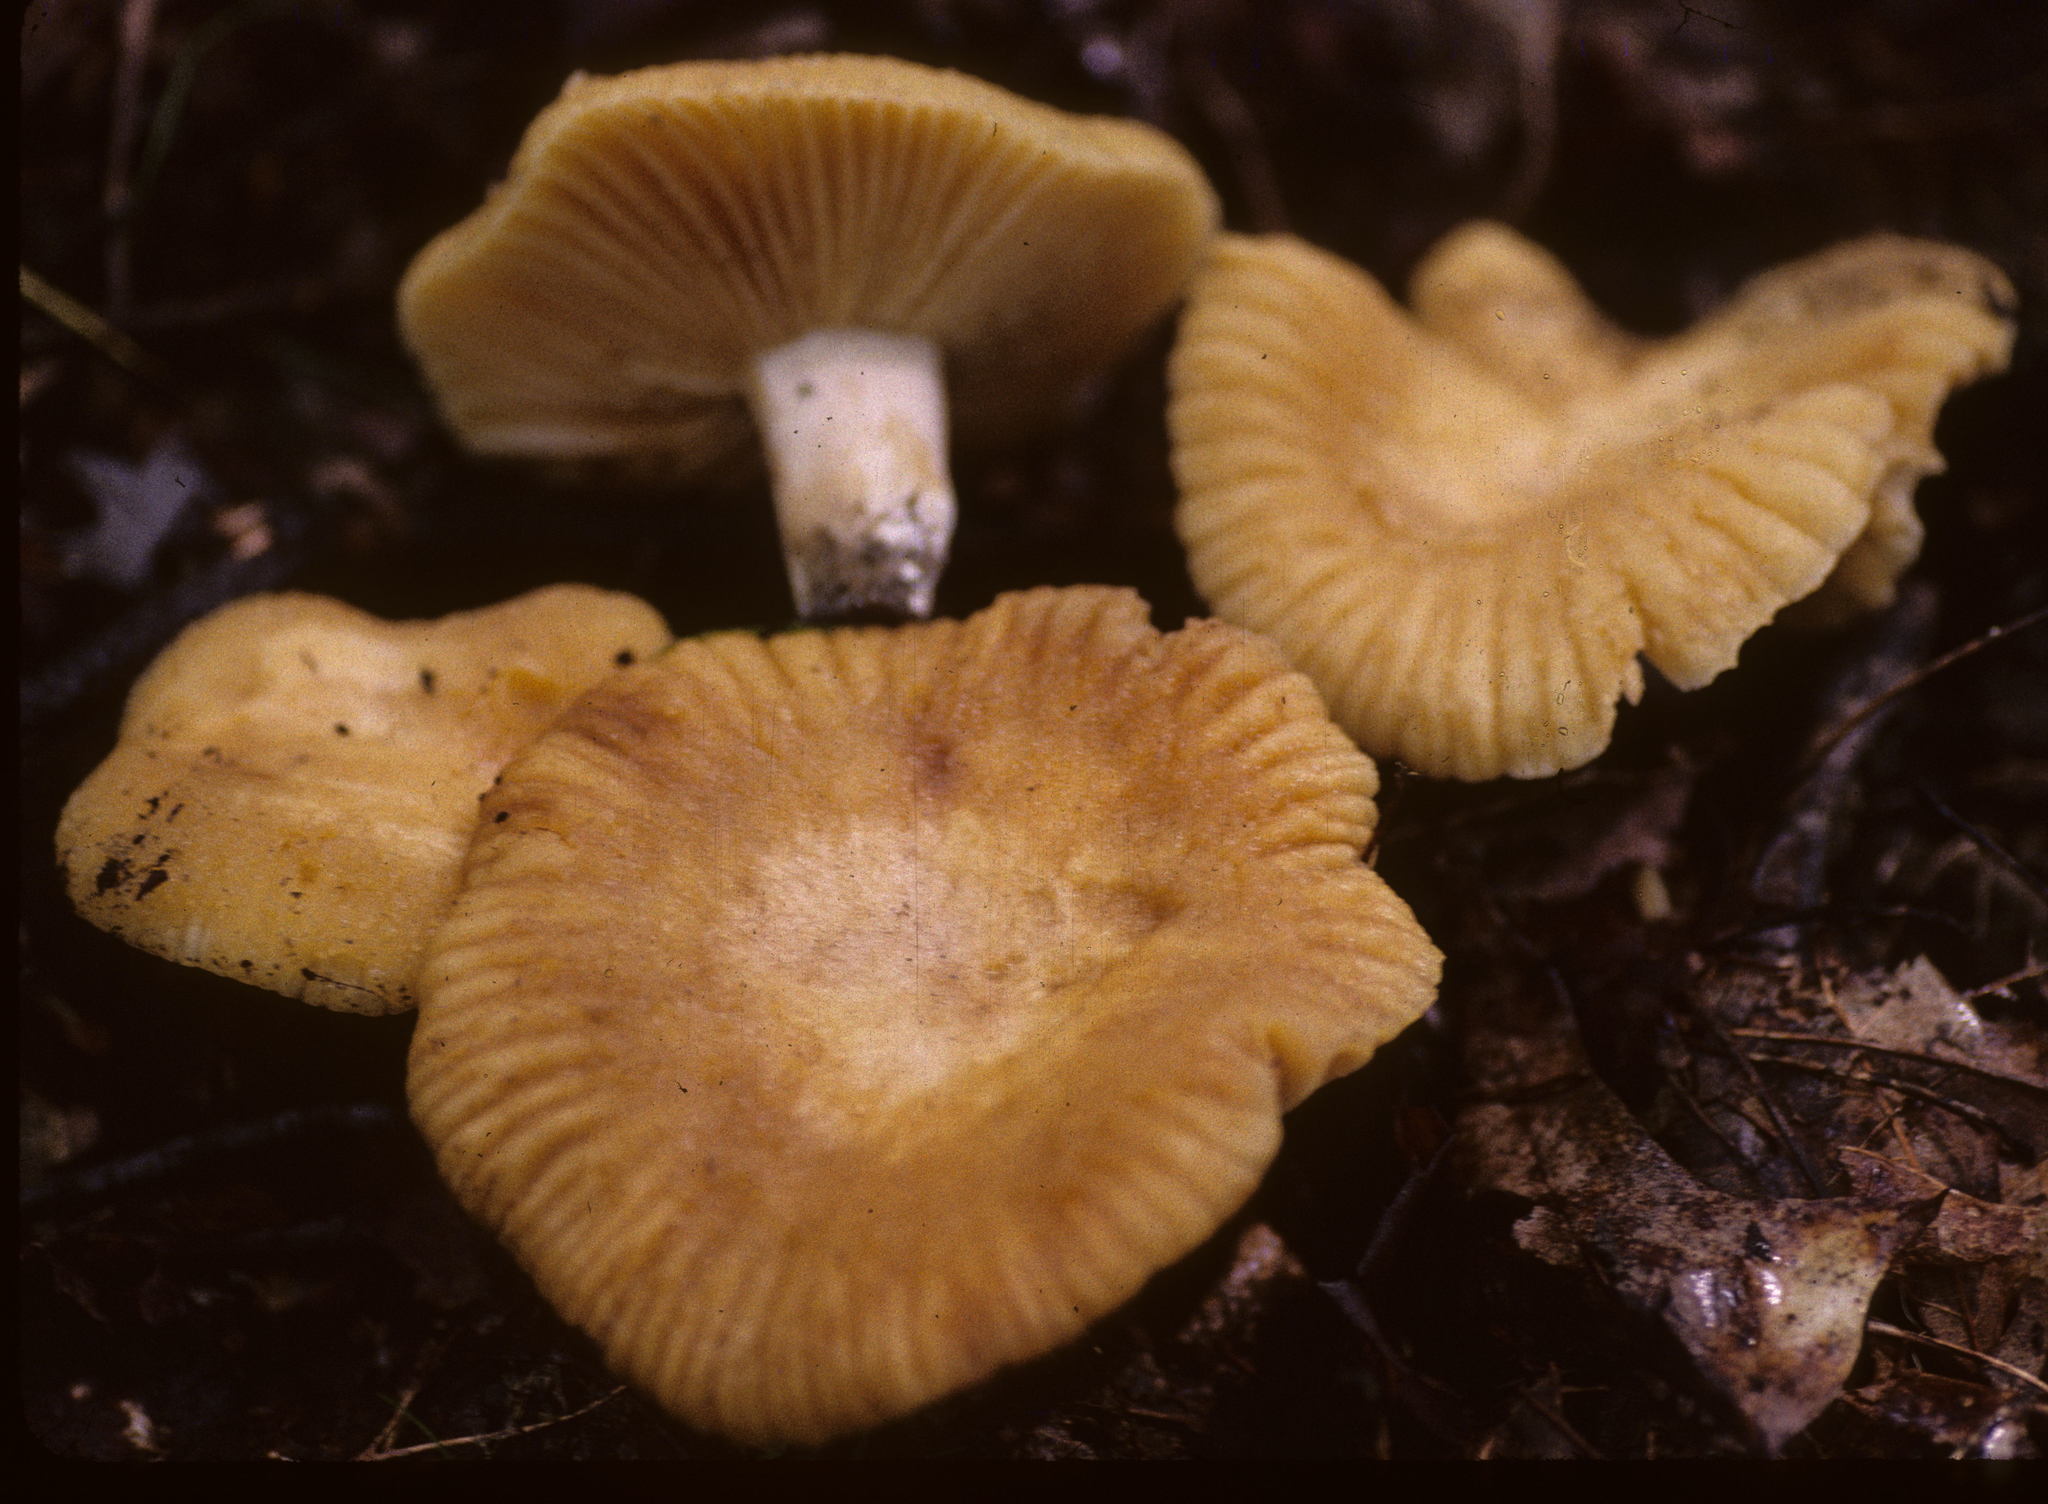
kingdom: Fungi
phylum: Basidiomycota
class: Agaricomycetes
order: Russulales
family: Russulaceae
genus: Russula
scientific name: Russula earlei
